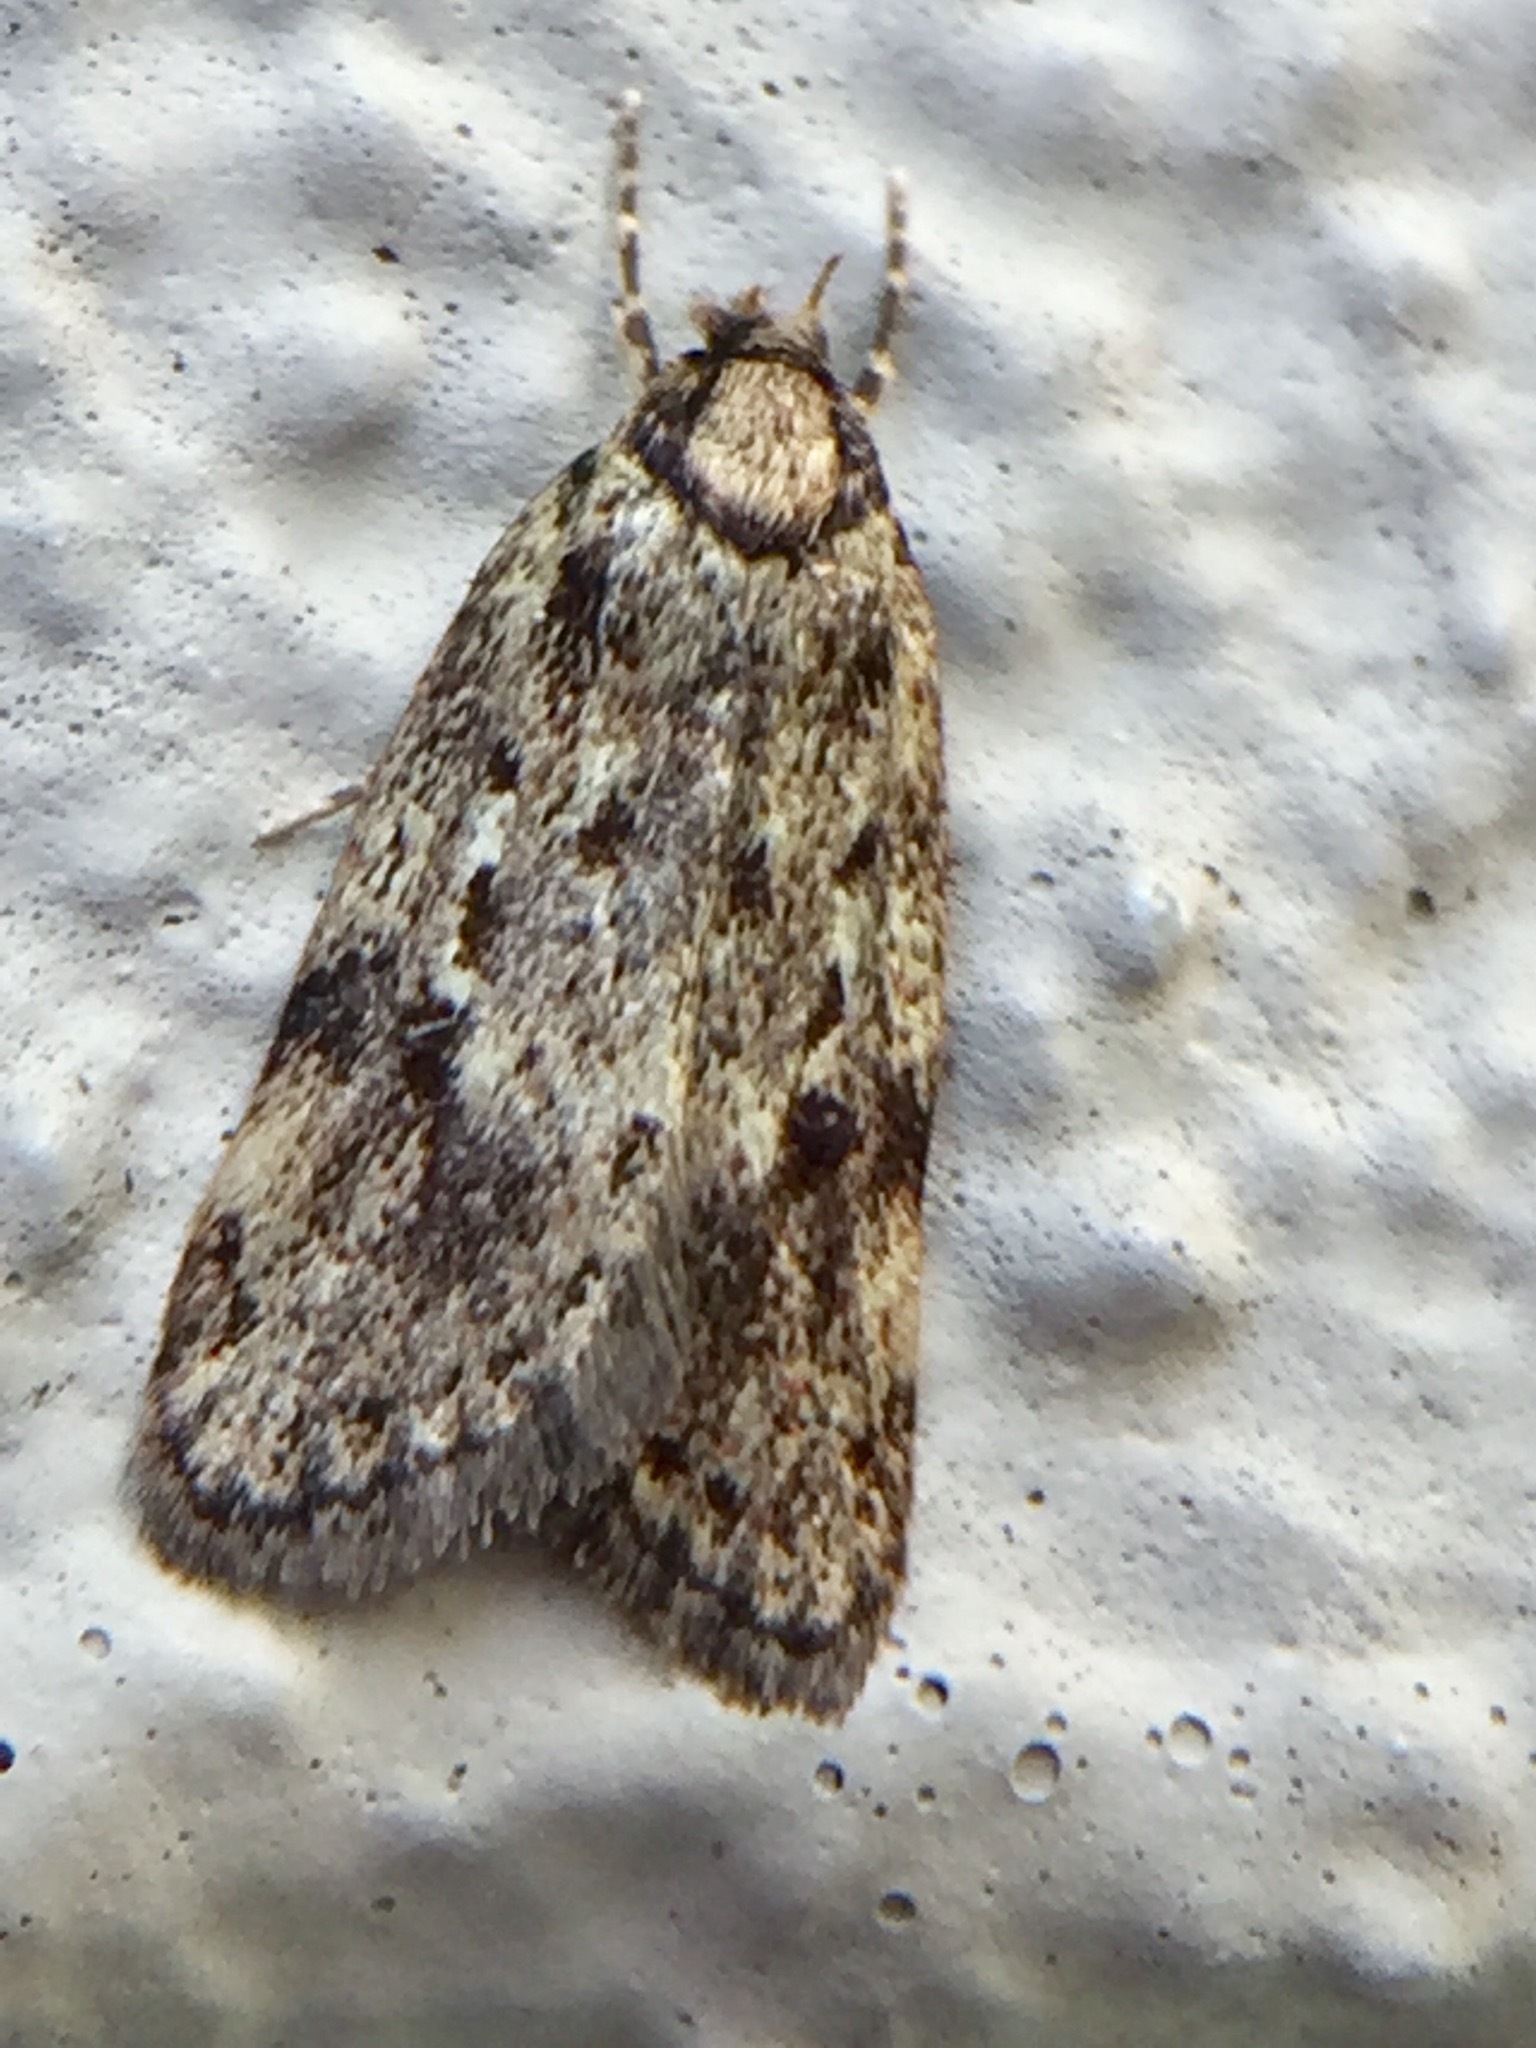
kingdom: Animalia
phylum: Arthropoda
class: Insecta
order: Lepidoptera
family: Oecophoridae
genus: Eulechria
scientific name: Eulechria zophoessa
